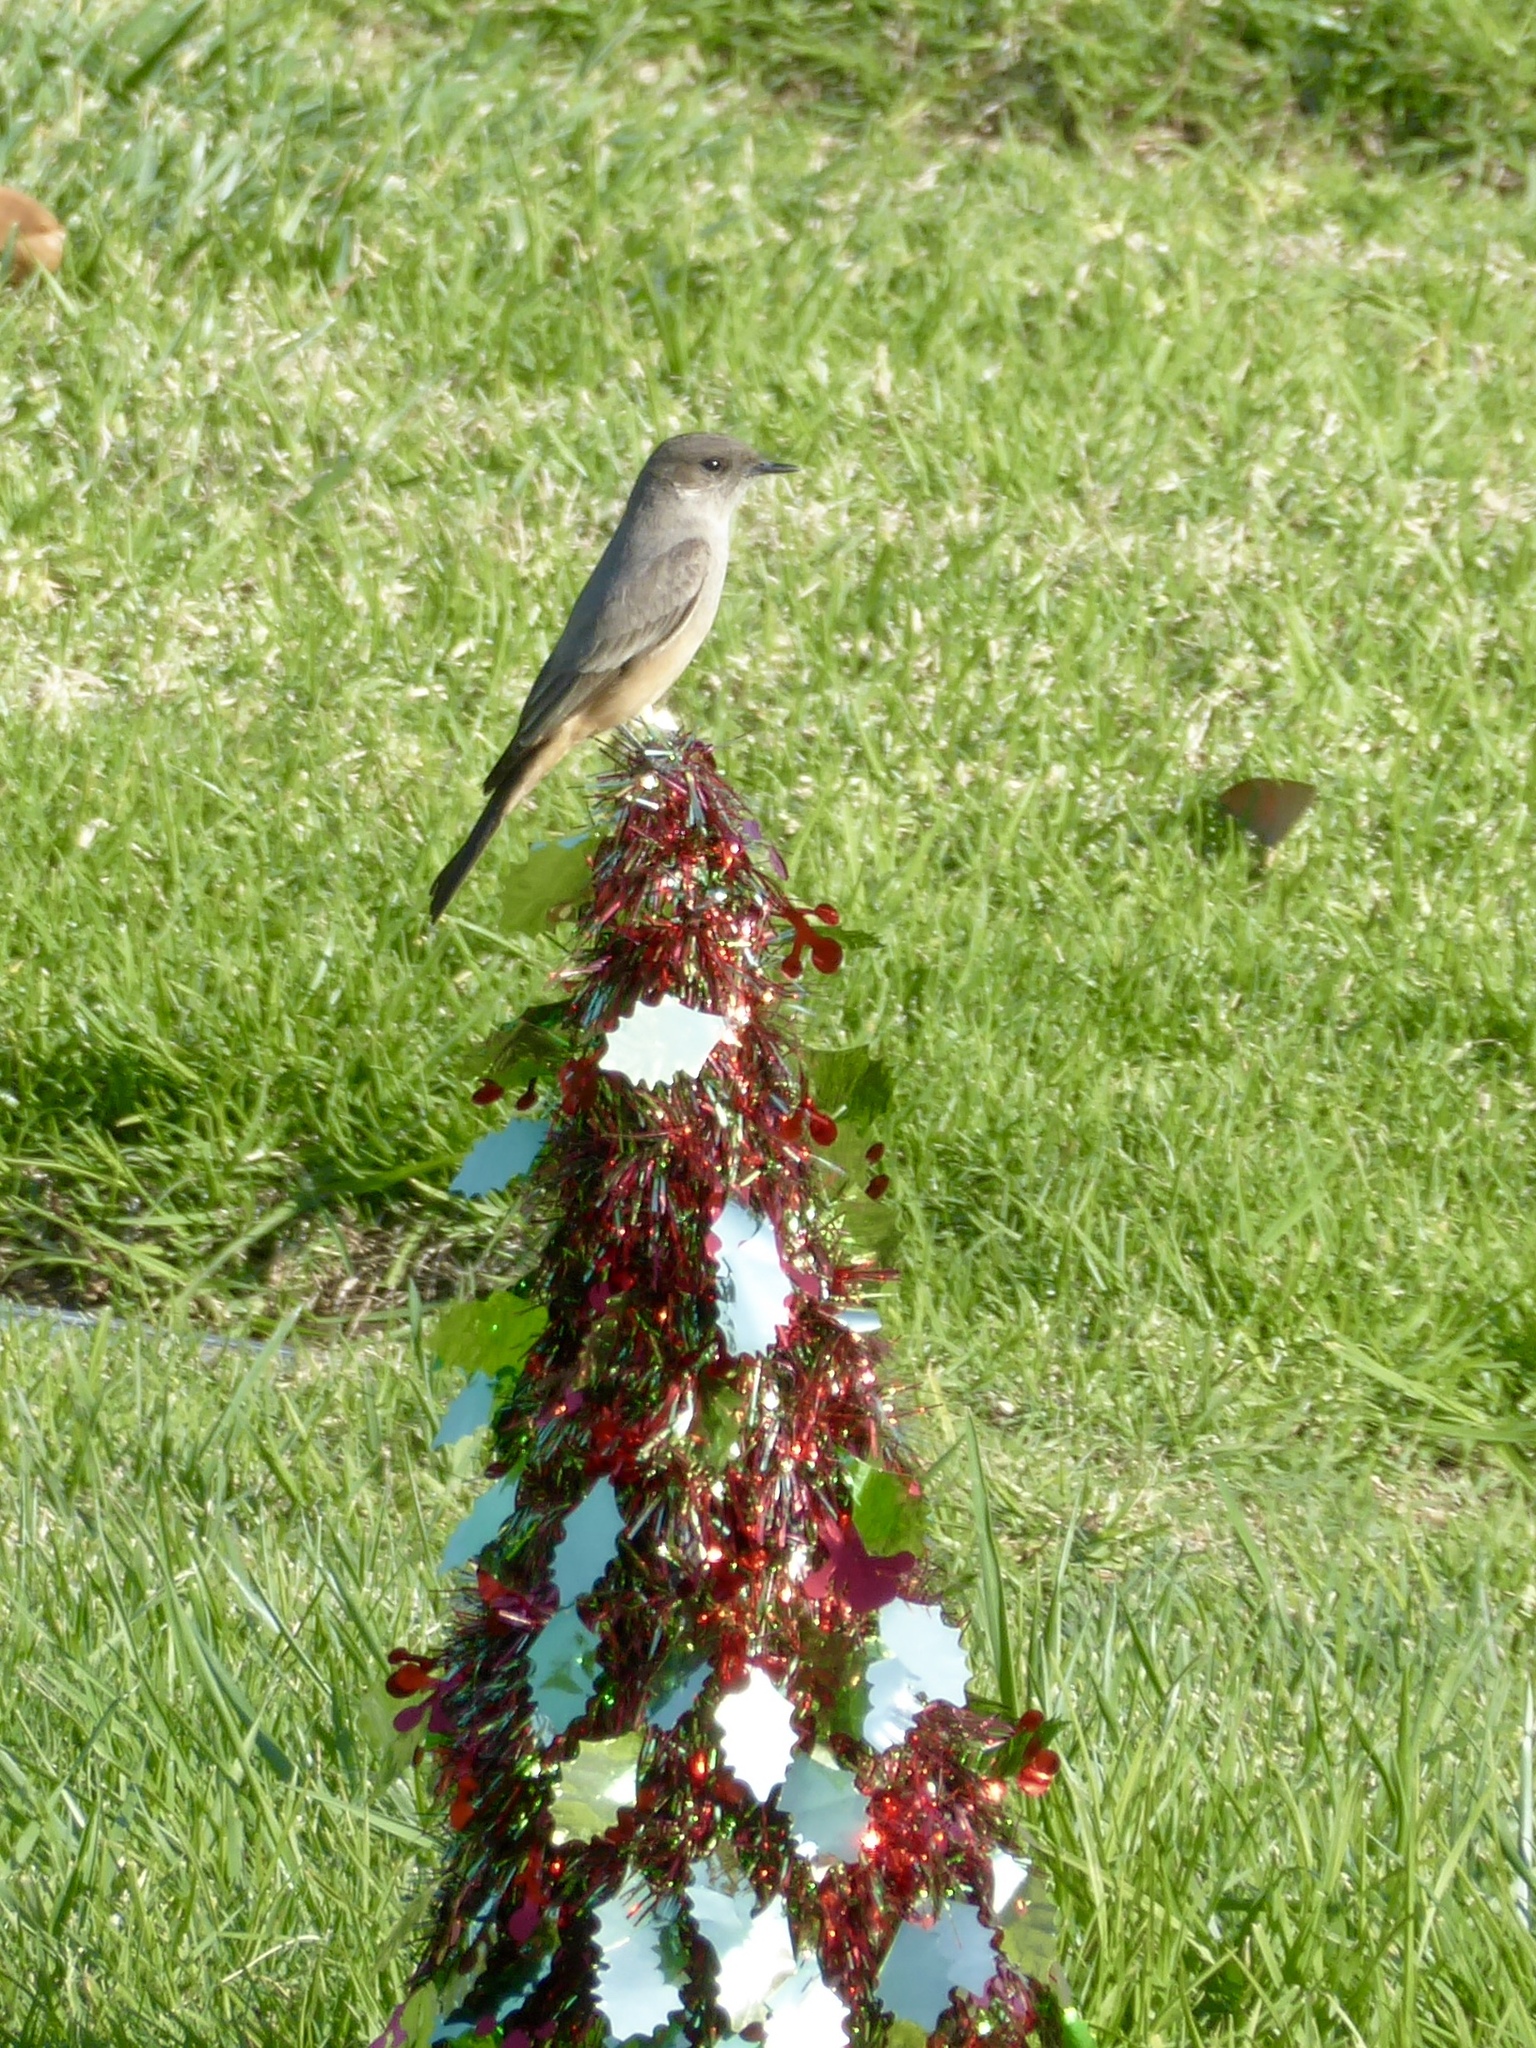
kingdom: Animalia
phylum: Chordata
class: Aves
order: Passeriformes
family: Tyrannidae
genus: Sayornis
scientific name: Sayornis saya
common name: Say's phoebe
